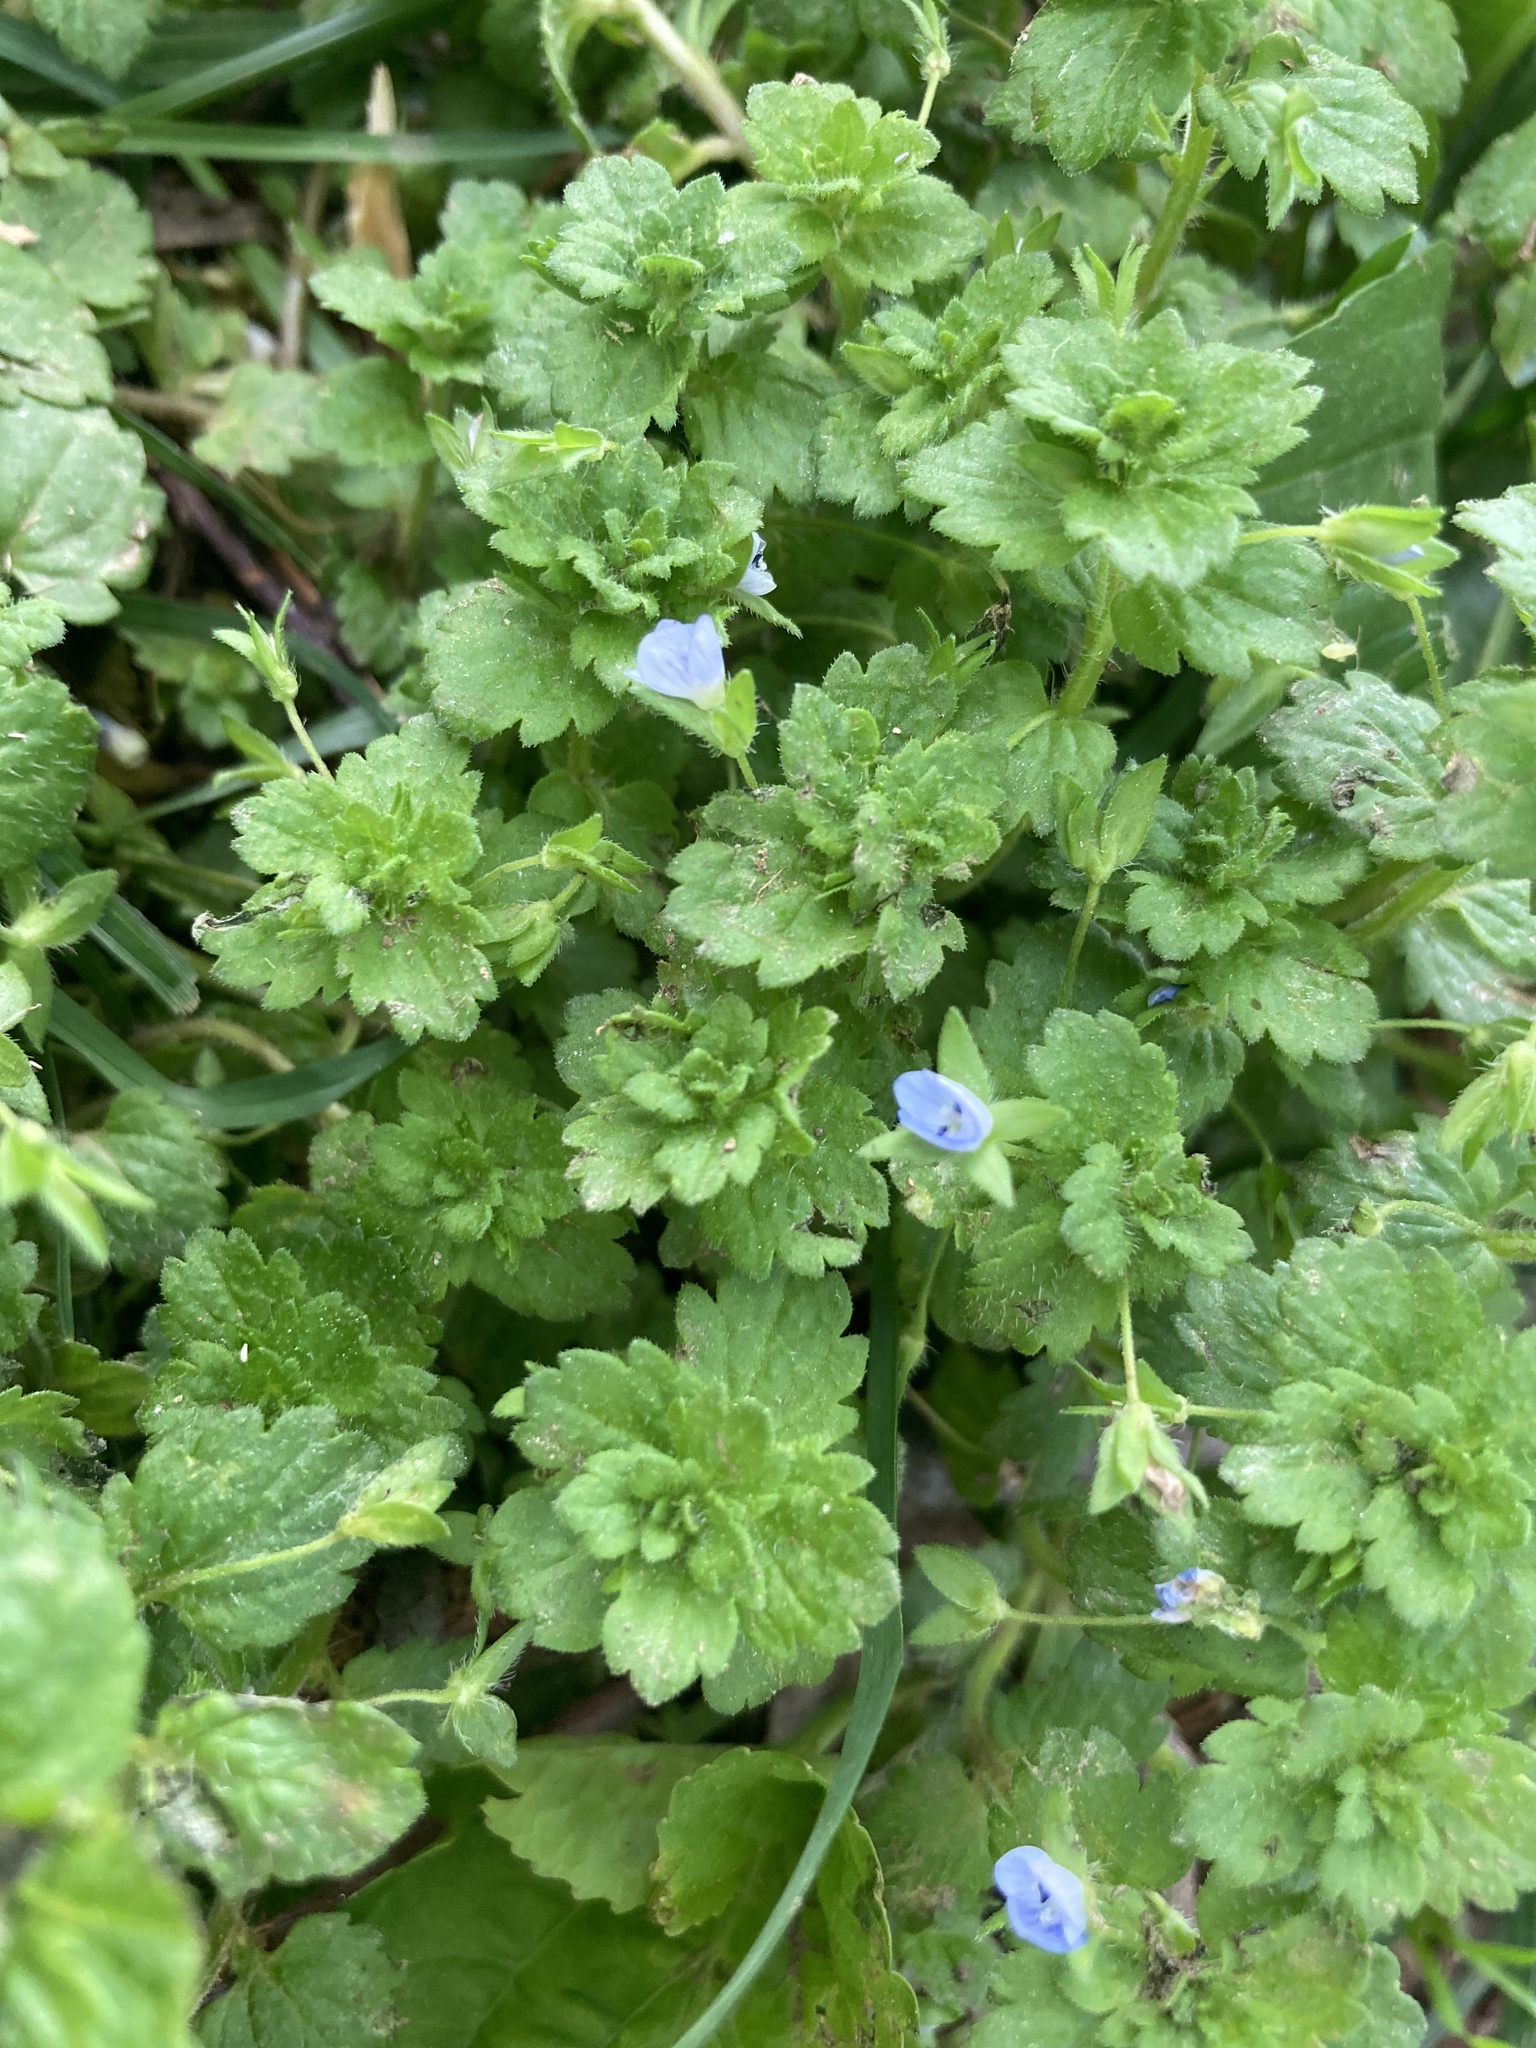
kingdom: Plantae
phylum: Tracheophyta
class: Magnoliopsida
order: Lamiales
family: Plantaginaceae
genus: Veronica
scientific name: Veronica persica
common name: Common field-speedwell
